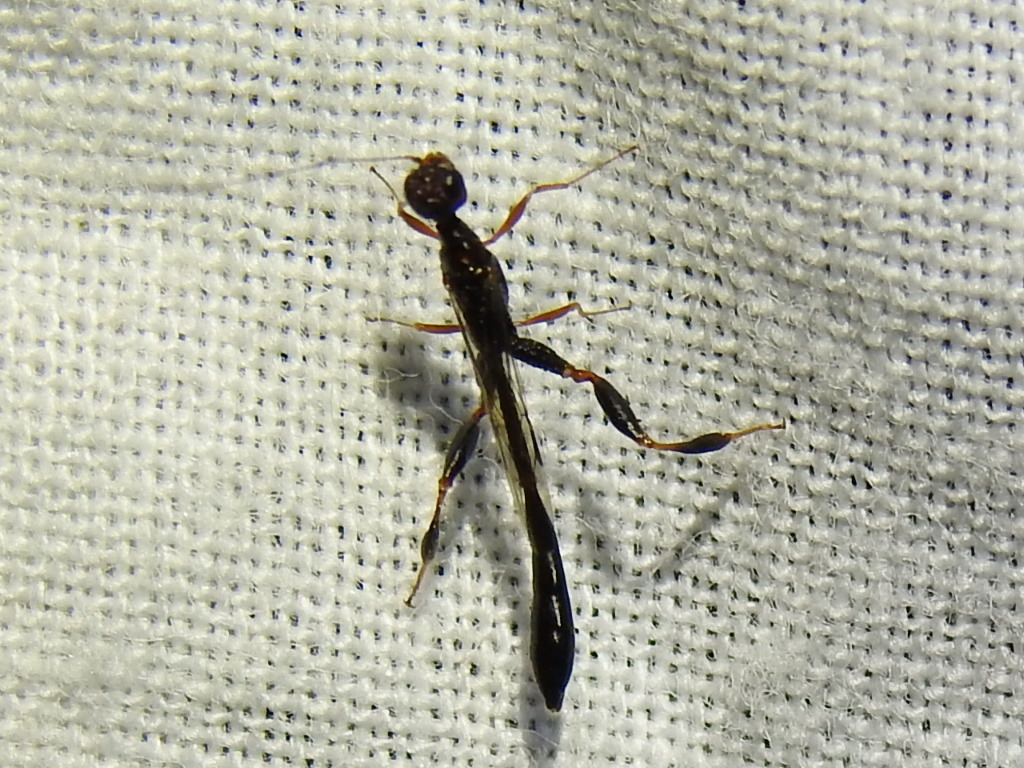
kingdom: Animalia
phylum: Arthropoda
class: Insecta
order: Hymenoptera
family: Stephanidae
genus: Megischus
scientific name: Megischus
